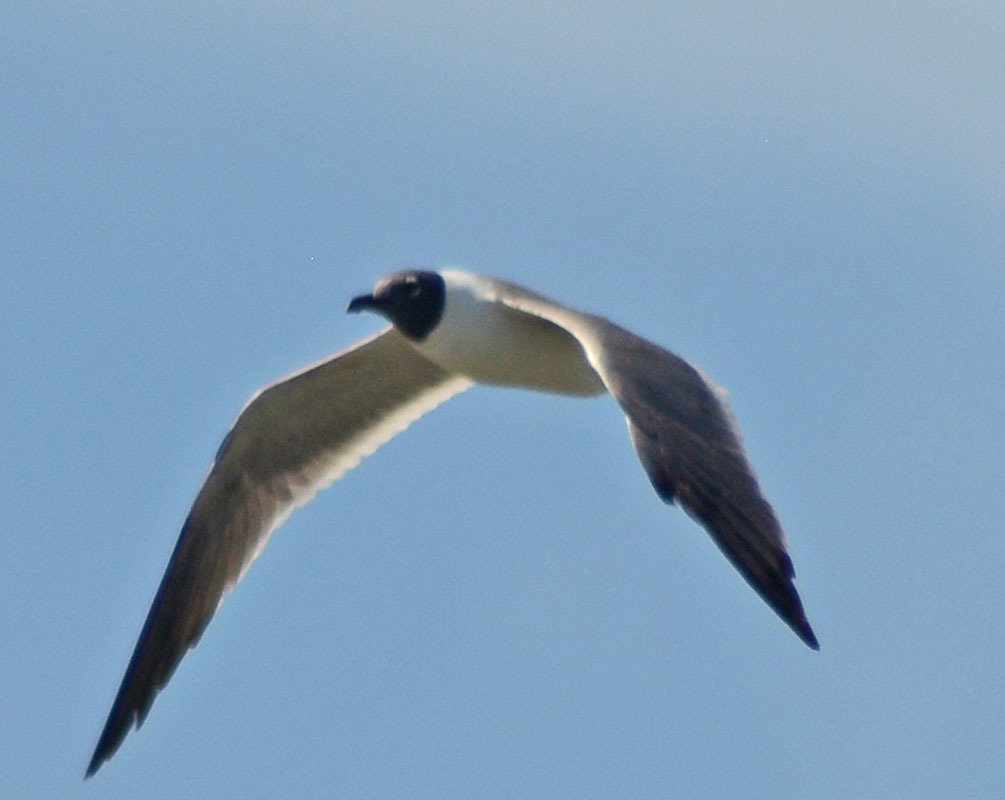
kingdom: Animalia
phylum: Chordata
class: Aves
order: Charadriiformes
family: Laridae
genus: Leucophaeus
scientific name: Leucophaeus atricilla
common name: Laughing gull
